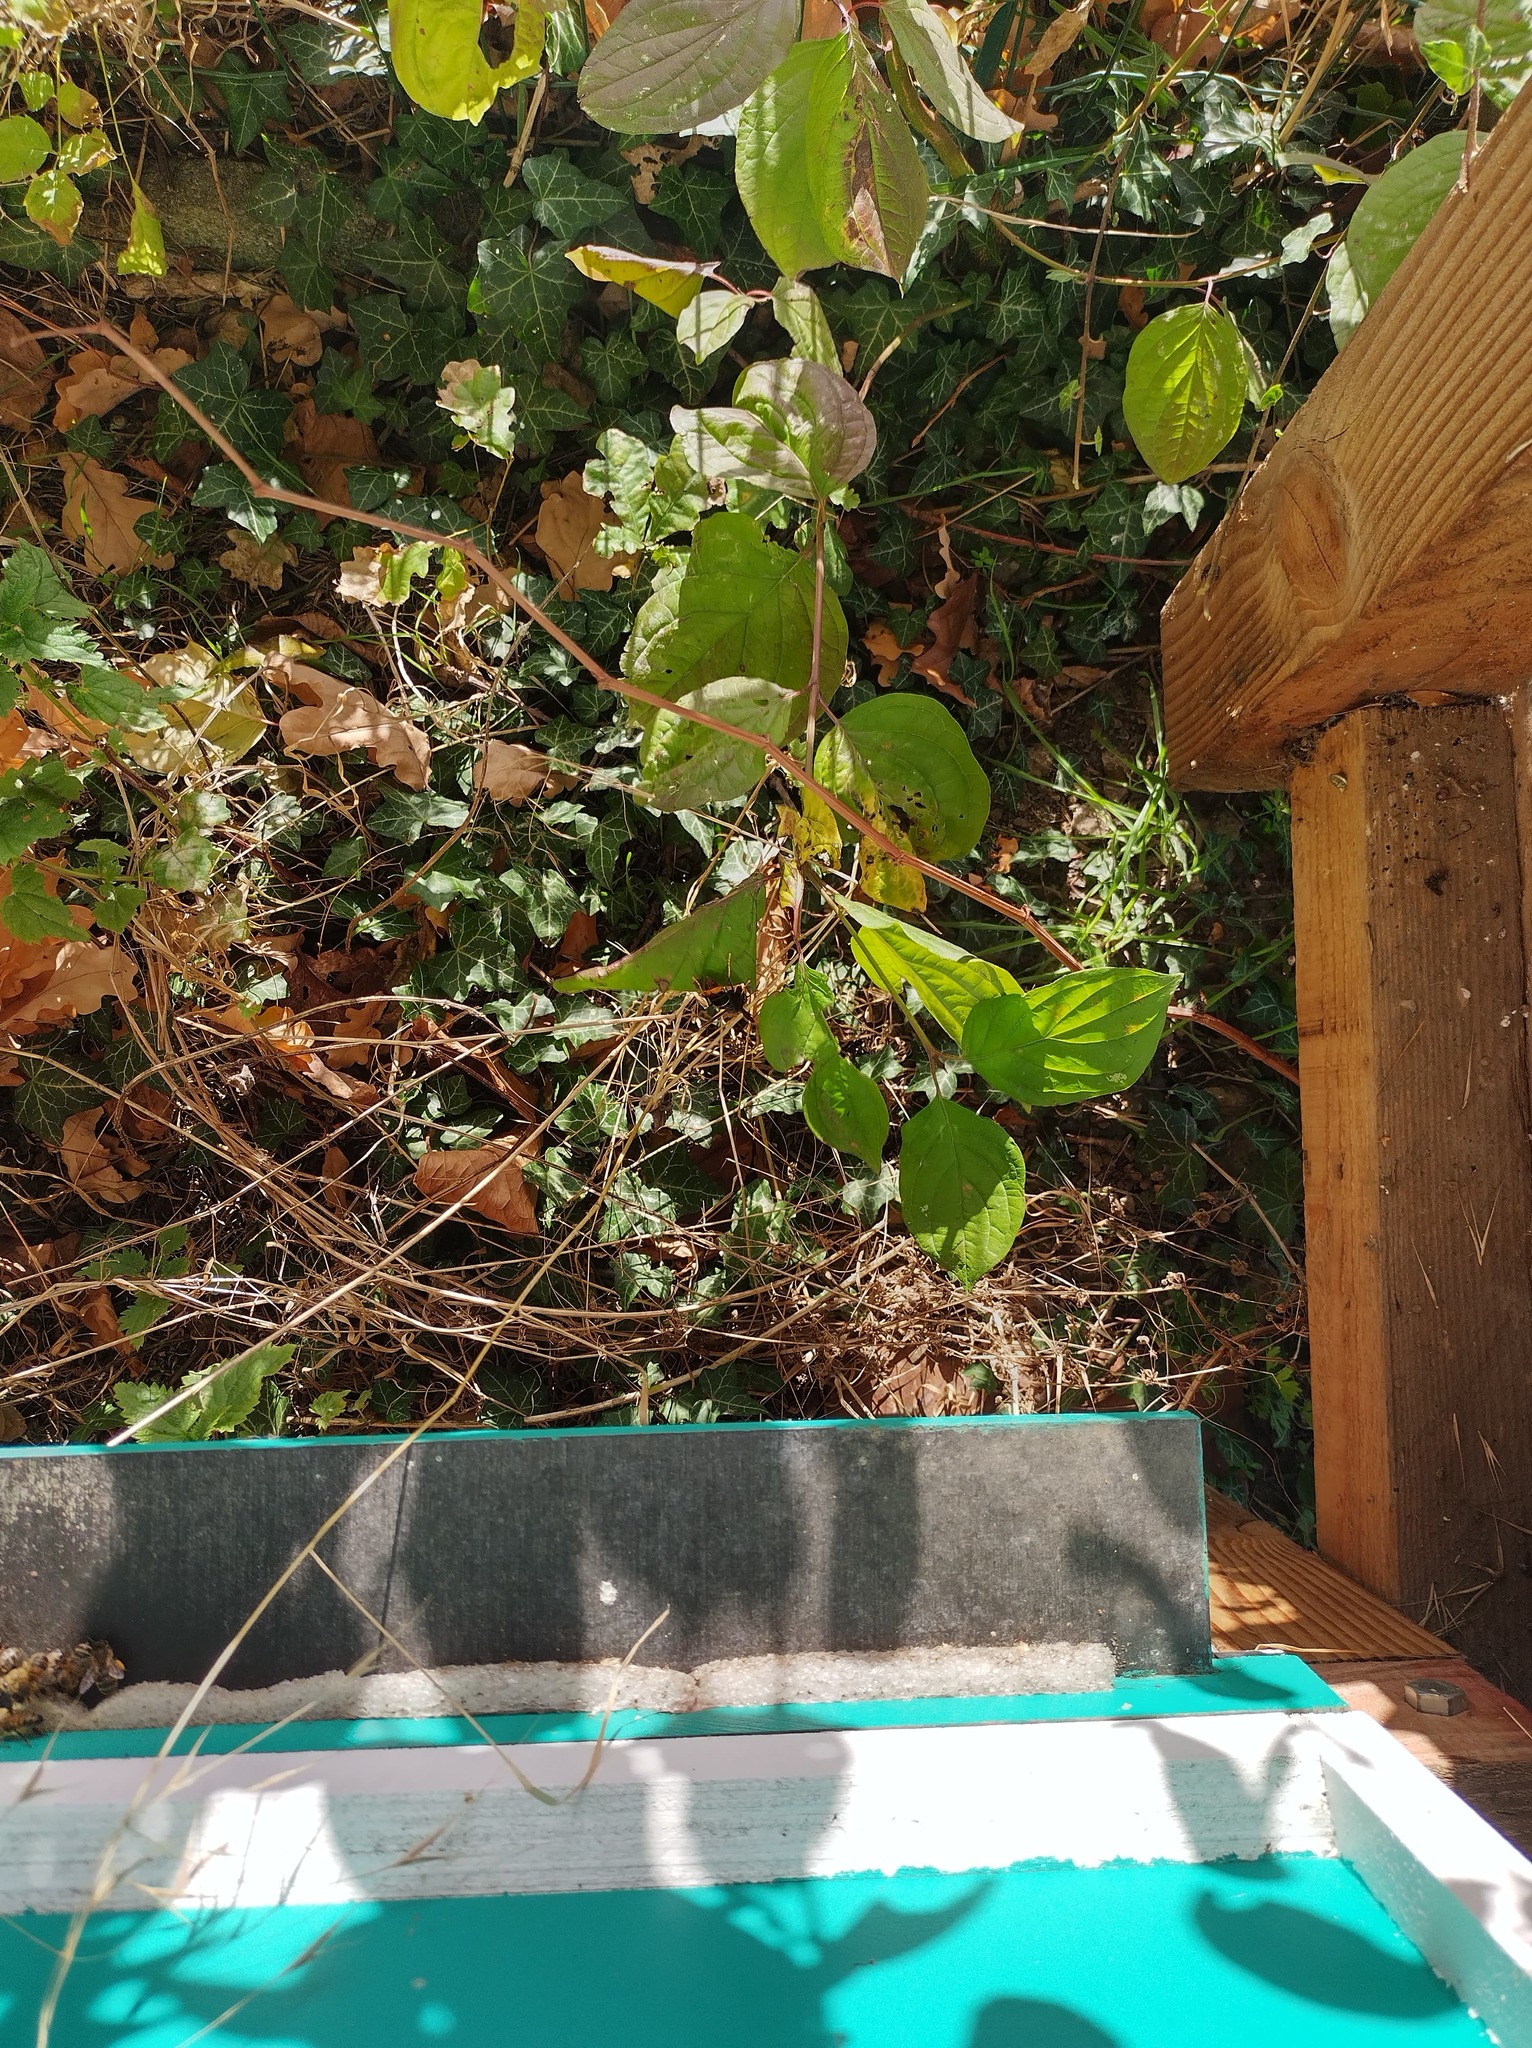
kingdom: Animalia
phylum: Arthropoda
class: Insecta
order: Hymenoptera
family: Vespidae
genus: Vespa
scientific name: Vespa velutina
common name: Asian hornet
